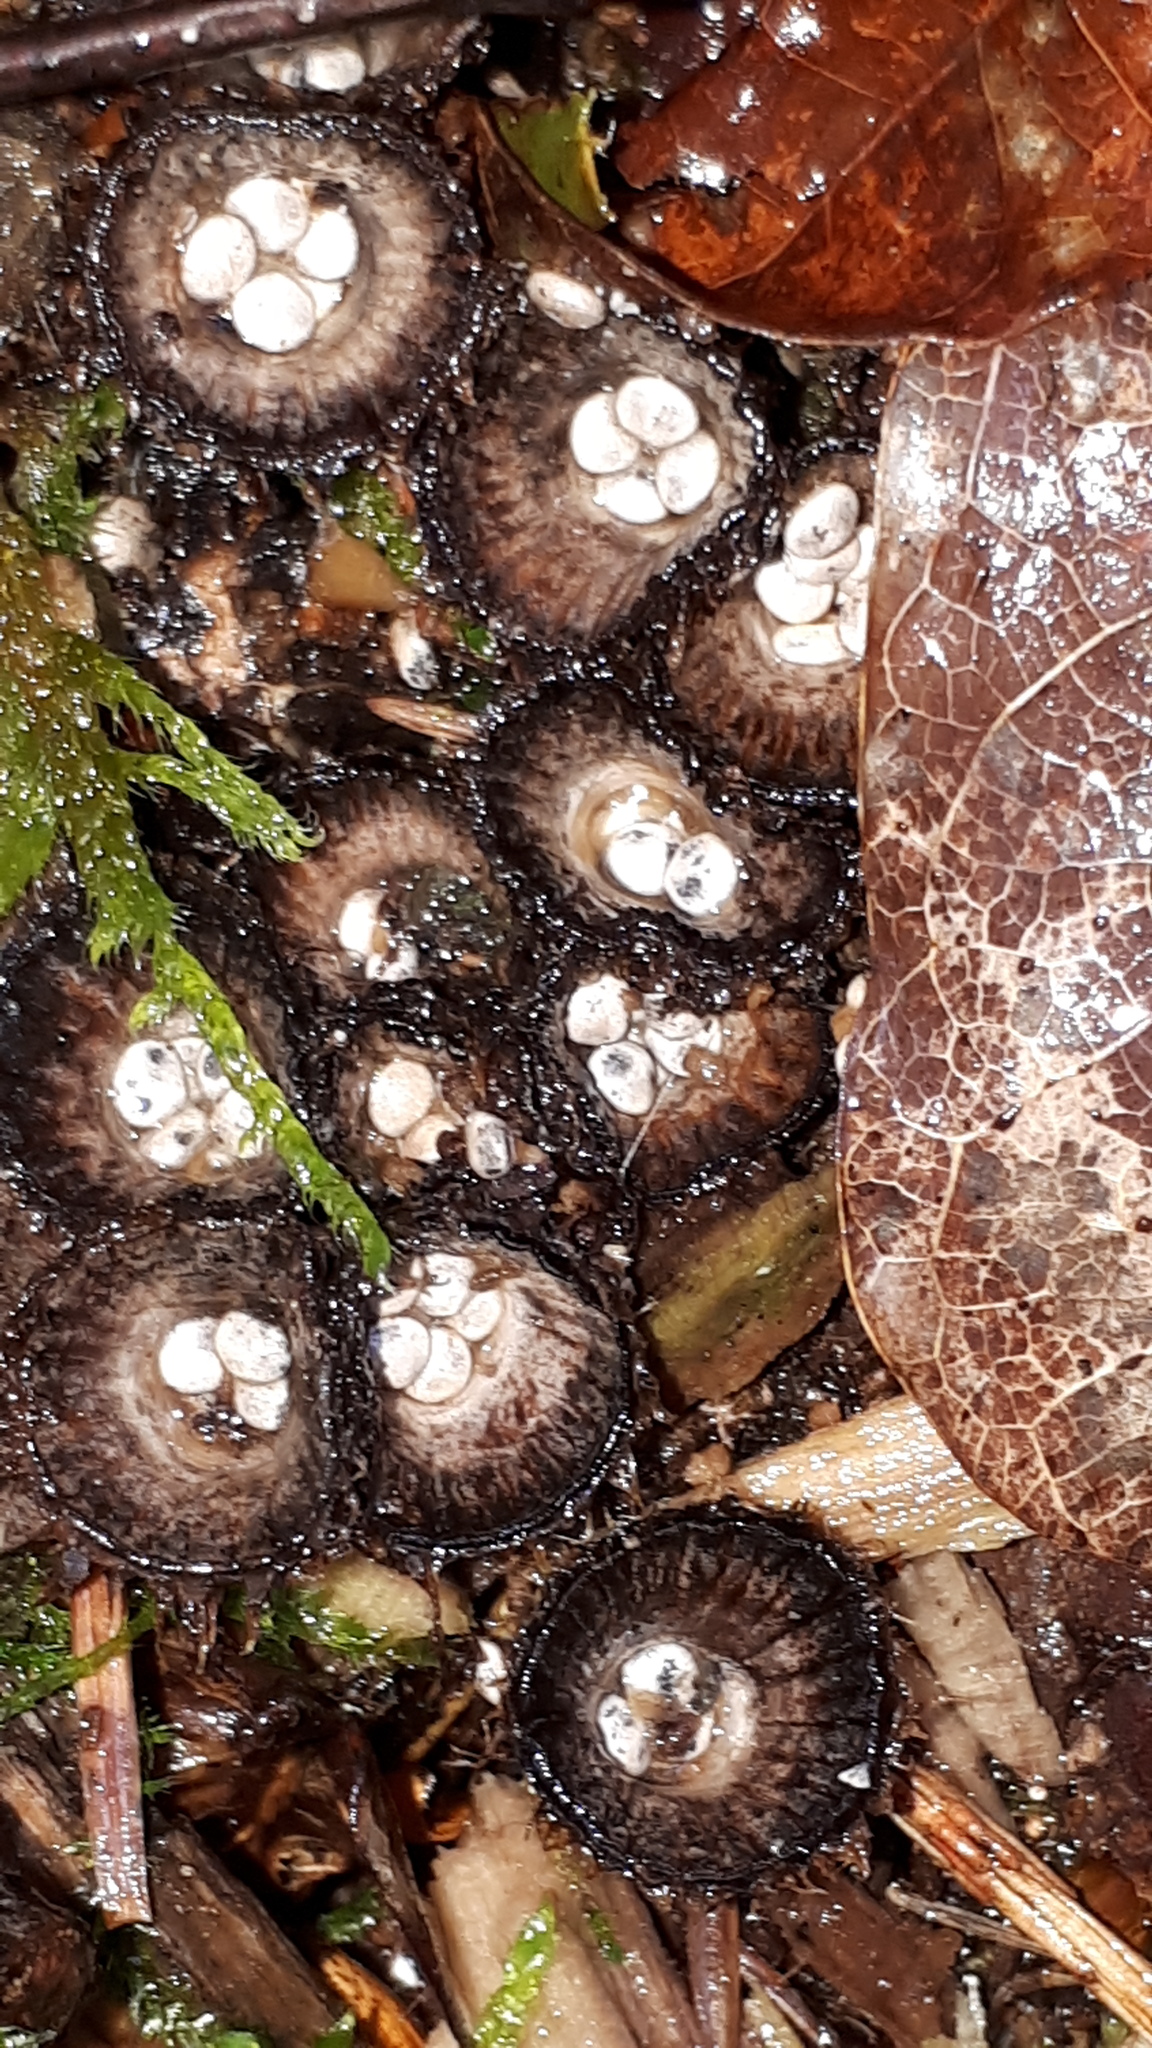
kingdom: Fungi
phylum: Basidiomycota
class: Agaricomycetes
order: Agaricales
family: Agaricaceae
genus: Cyathus
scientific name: Cyathus striatus
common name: Fluted bird's nest
